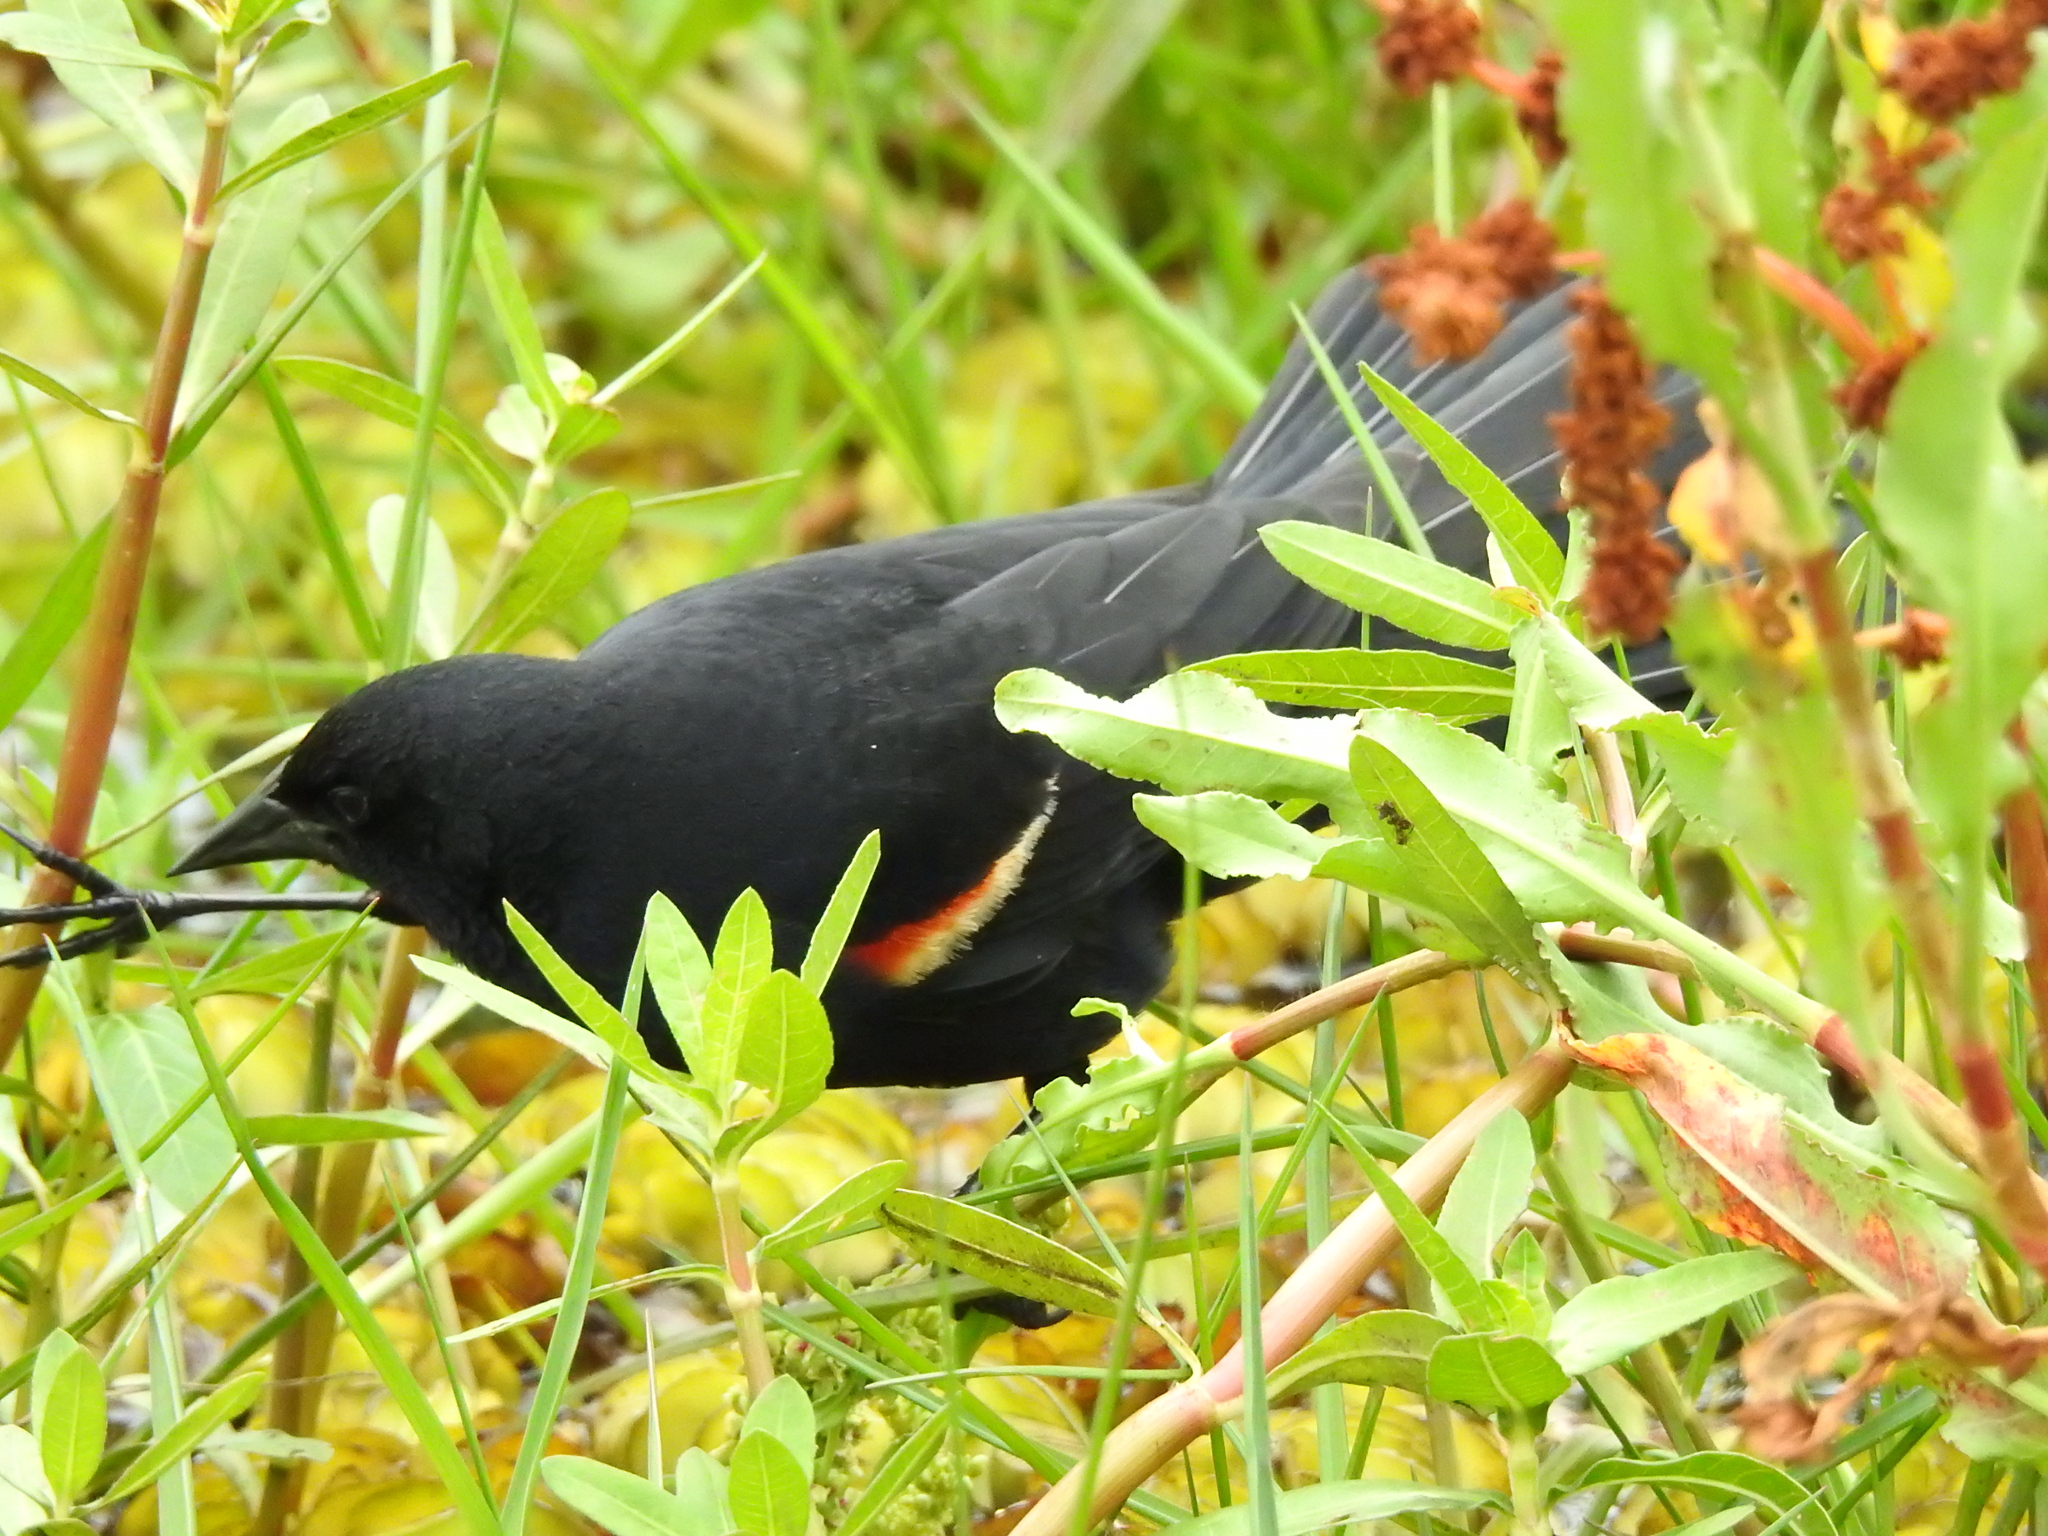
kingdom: Animalia
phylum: Chordata
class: Aves
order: Passeriformes
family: Icteridae
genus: Agelaius
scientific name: Agelaius phoeniceus
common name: Red-winged blackbird
